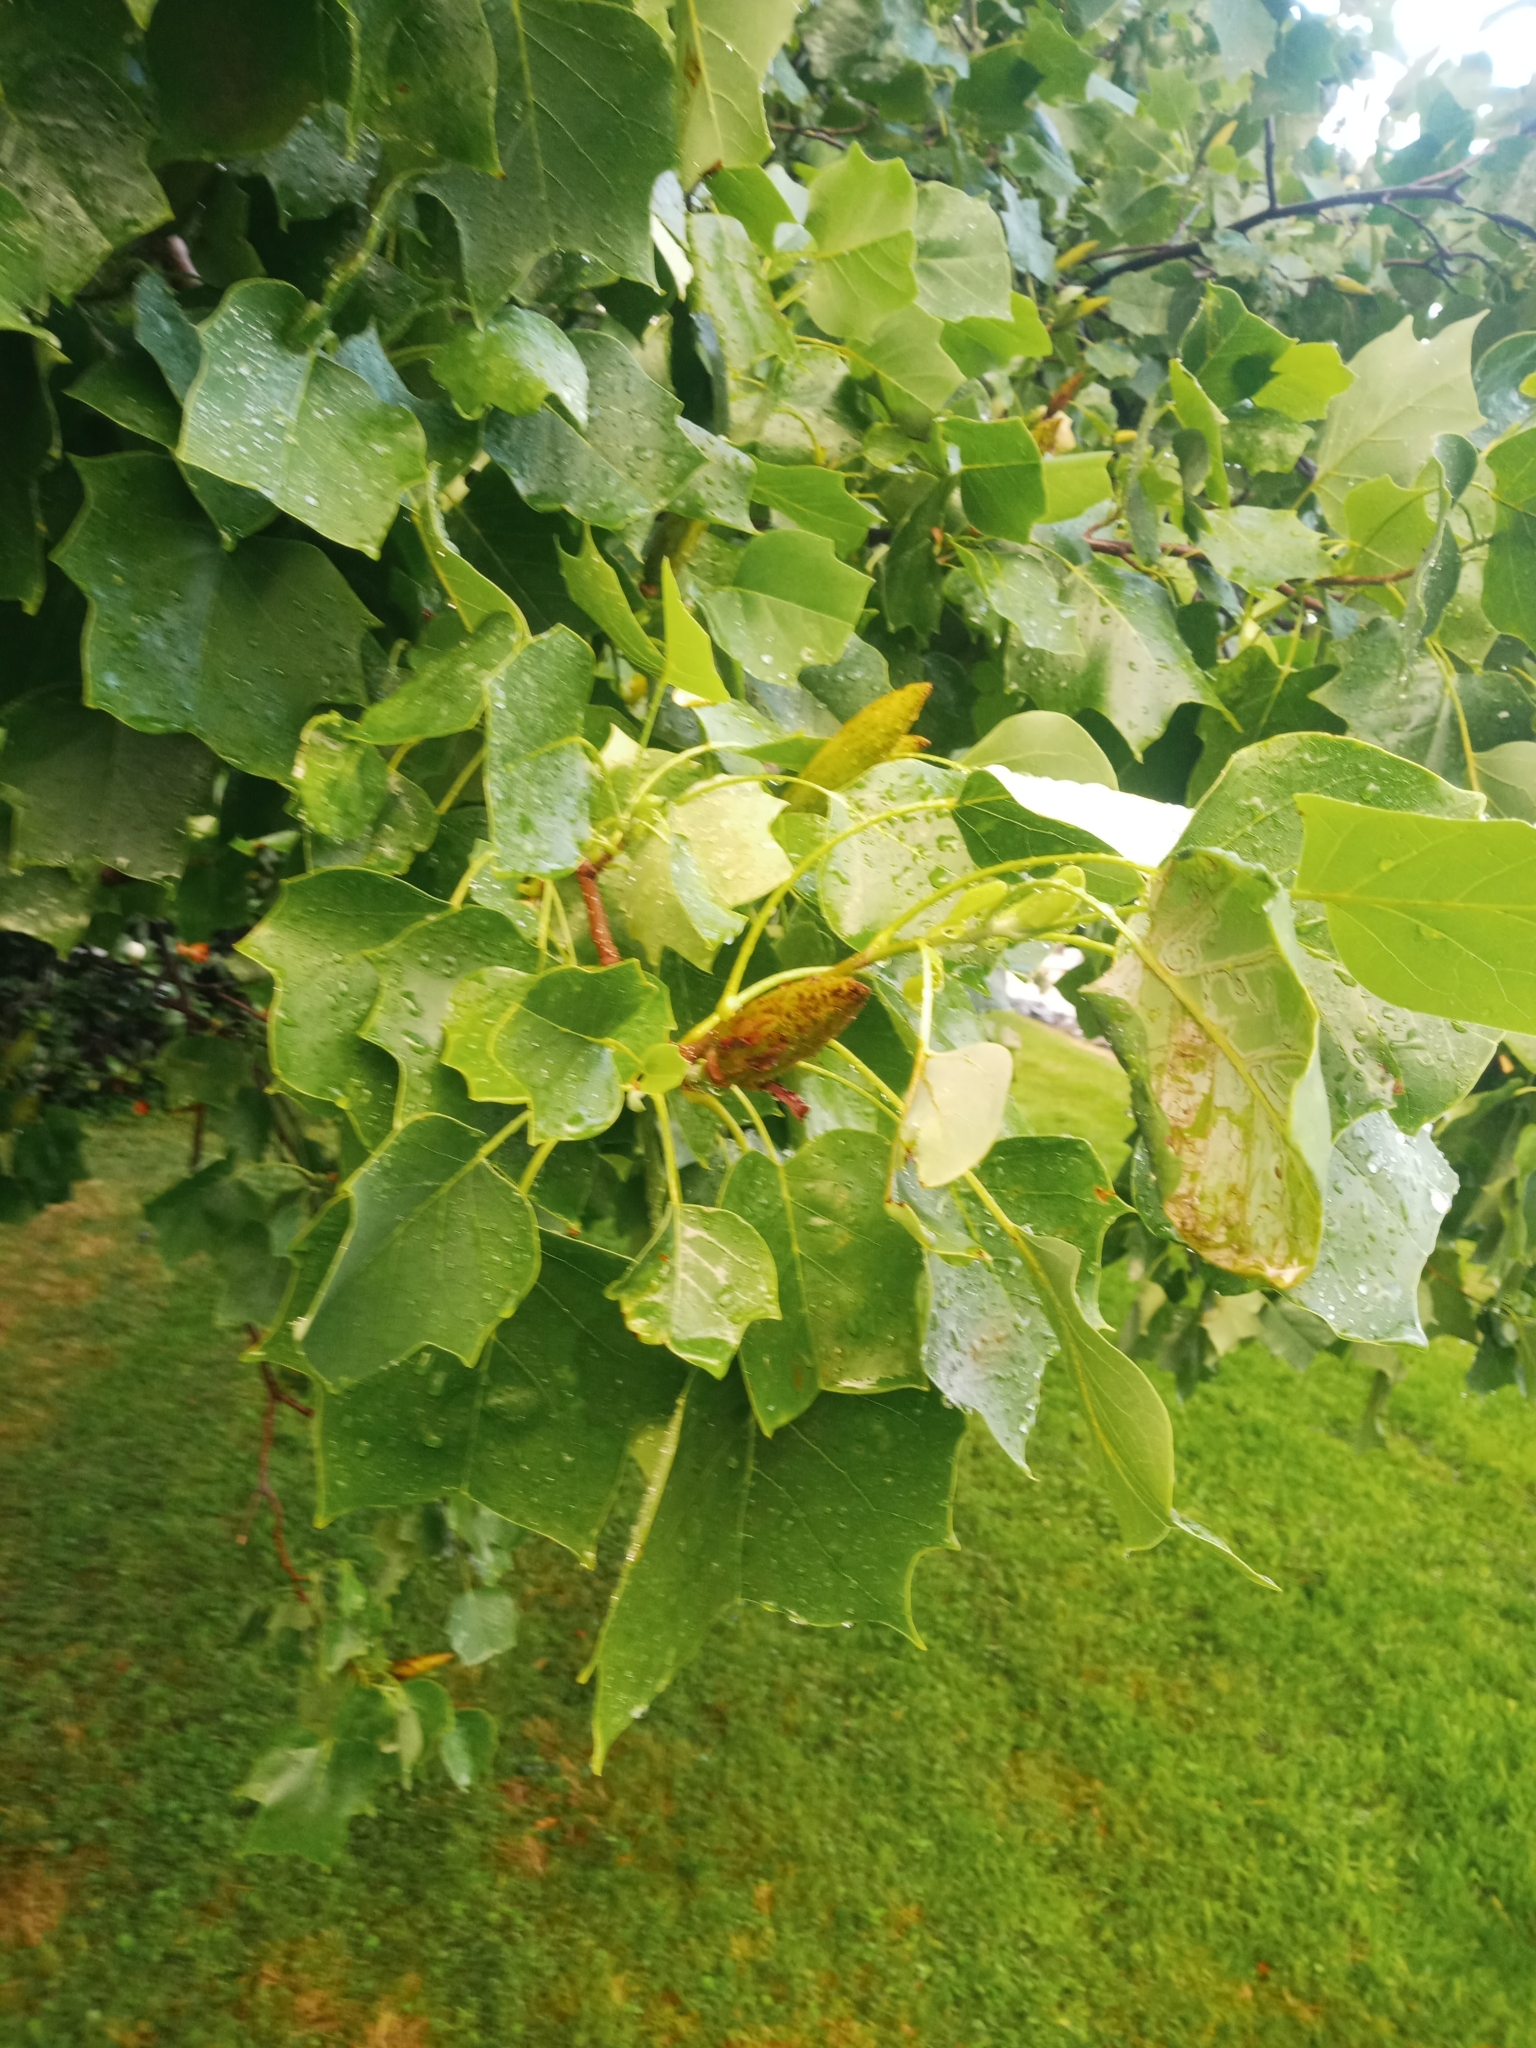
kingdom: Plantae
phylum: Tracheophyta
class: Magnoliopsida
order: Magnoliales
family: Magnoliaceae
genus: Liriodendron
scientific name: Liriodendron tulipifera
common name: Tulip tree
